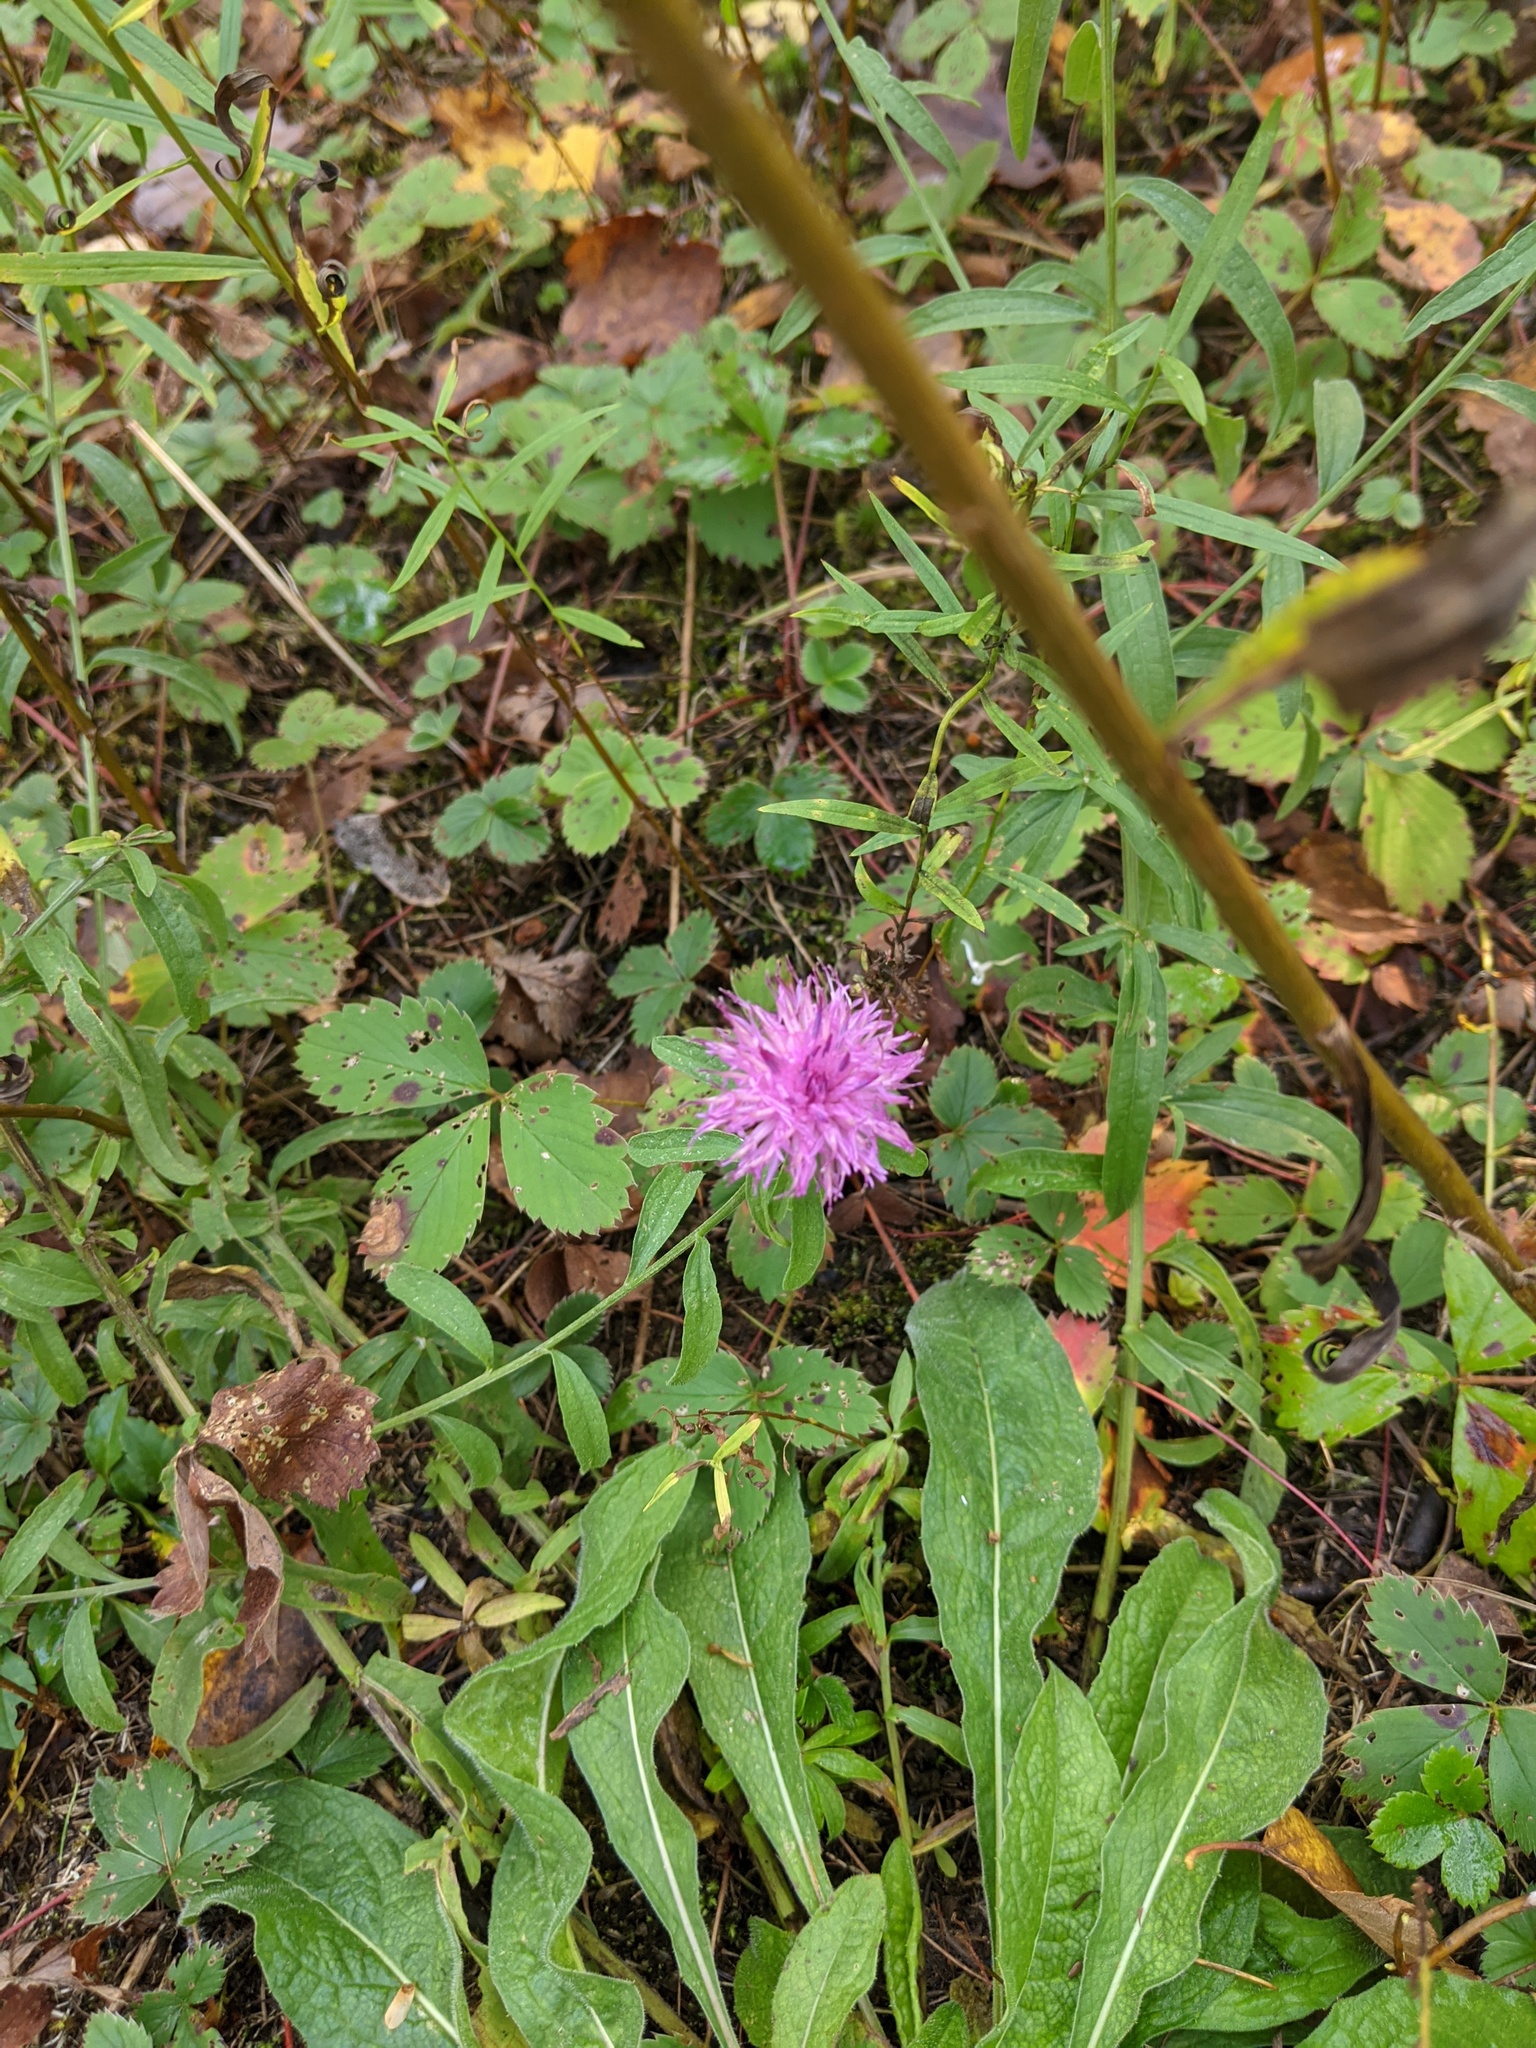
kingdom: Plantae
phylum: Tracheophyta
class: Magnoliopsida
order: Asterales
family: Asteraceae
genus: Centaurea
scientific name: Centaurea nigra
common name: Lesser knapweed
